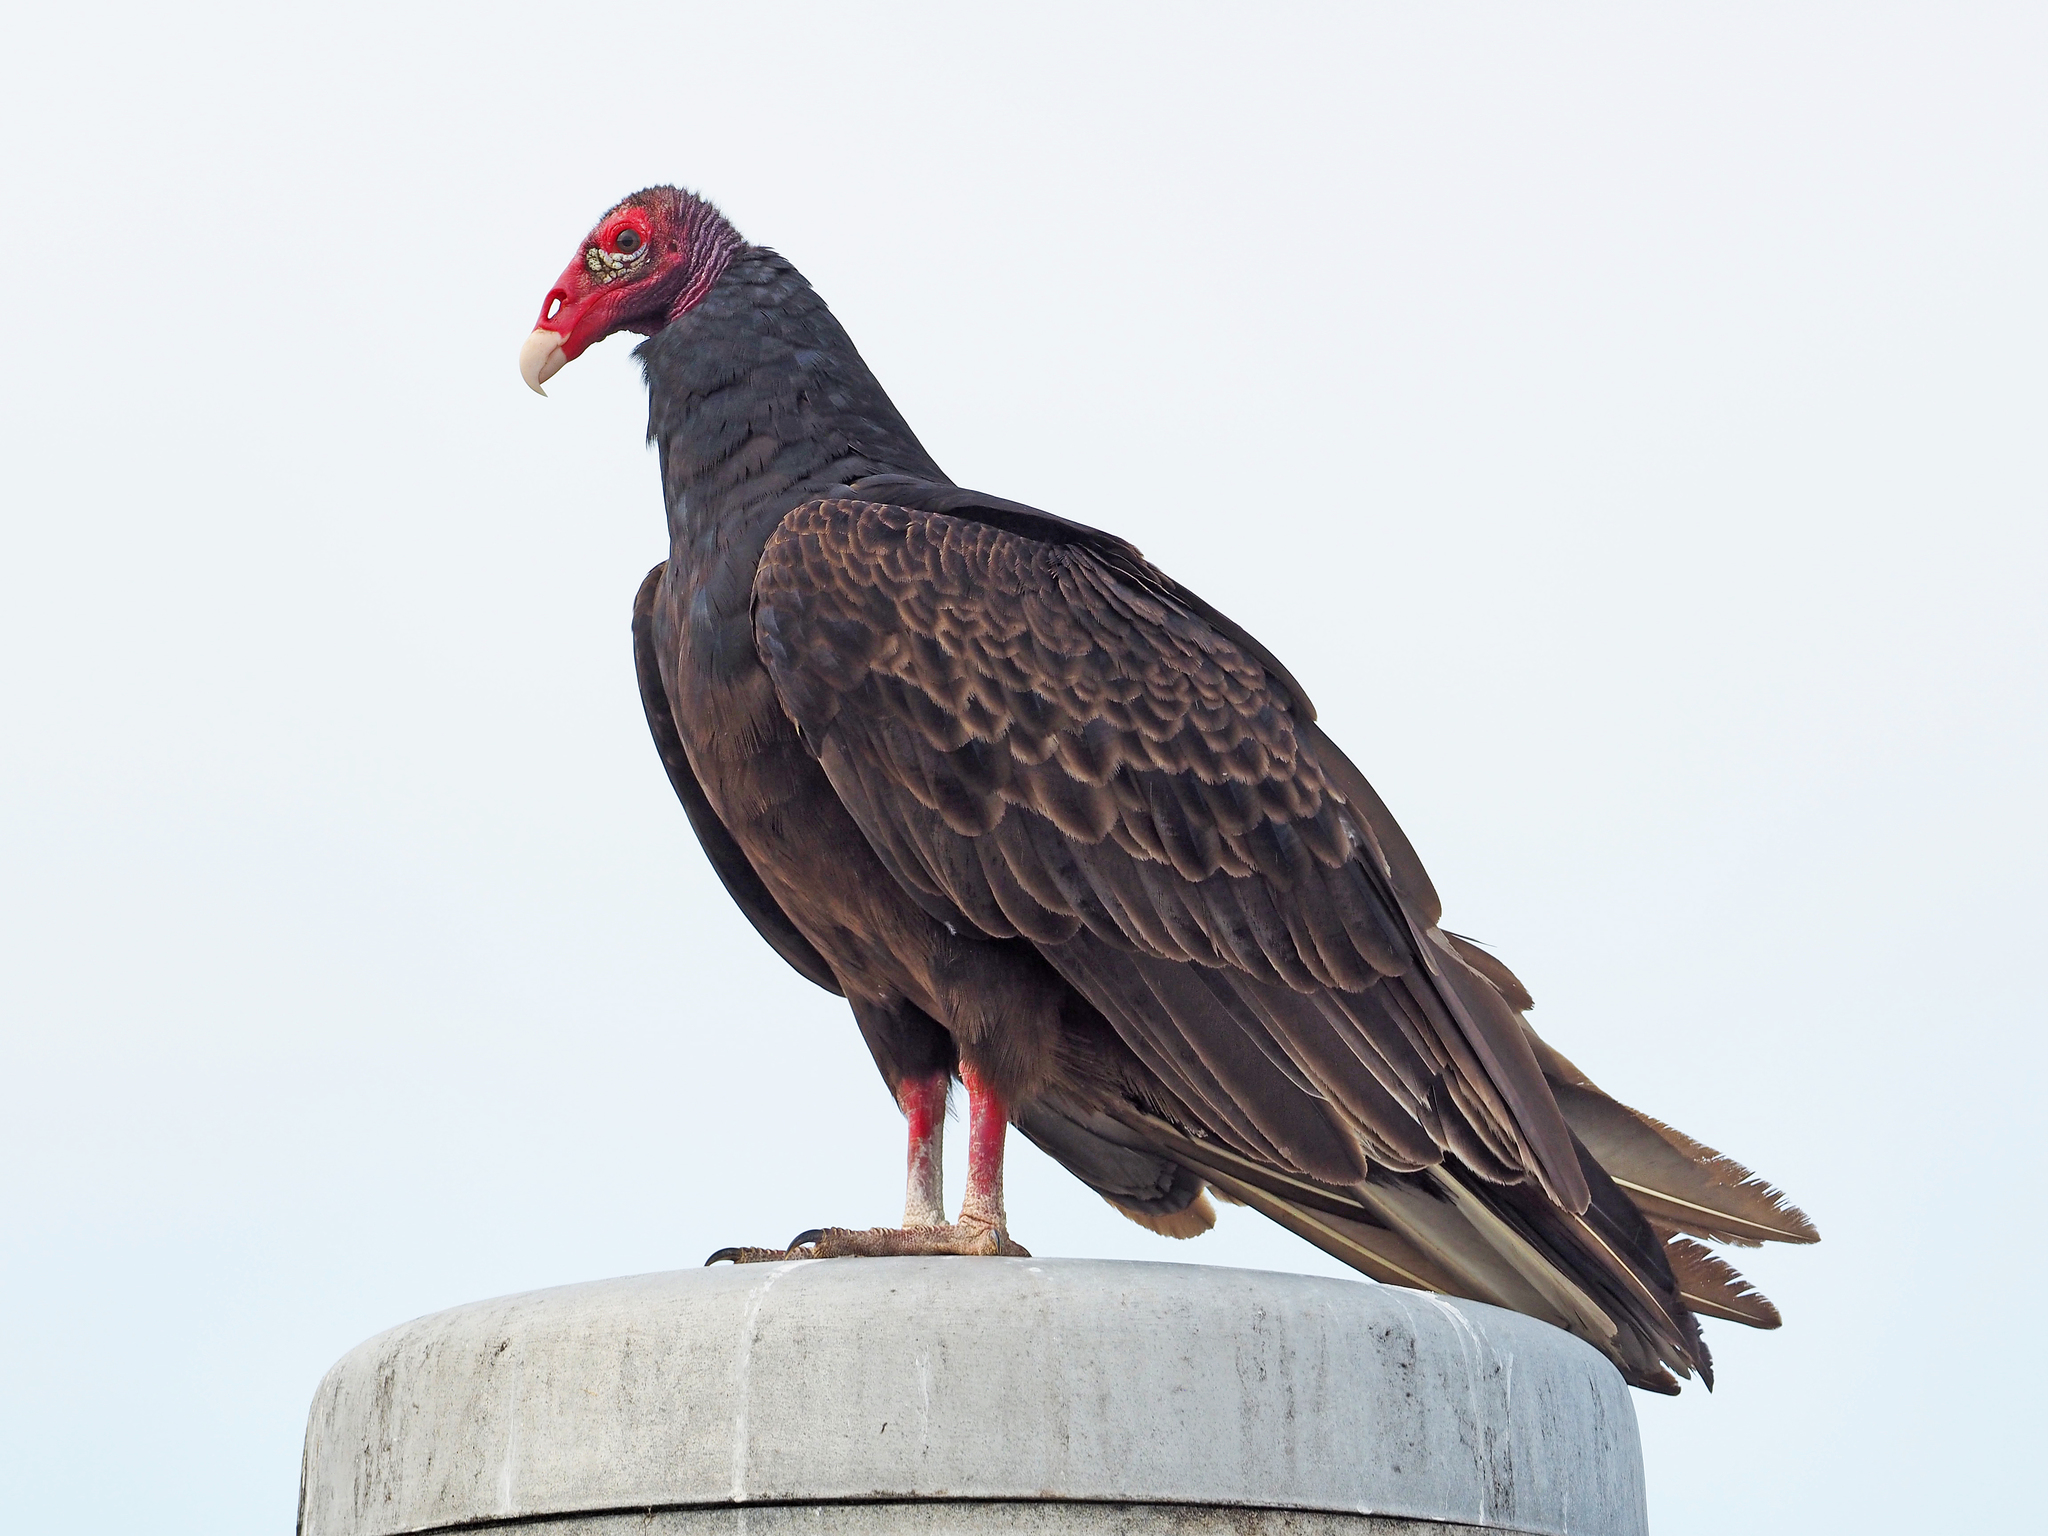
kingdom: Animalia
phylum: Chordata
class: Aves
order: Accipitriformes
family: Cathartidae
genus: Cathartes
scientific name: Cathartes aura
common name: Turkey vulture
